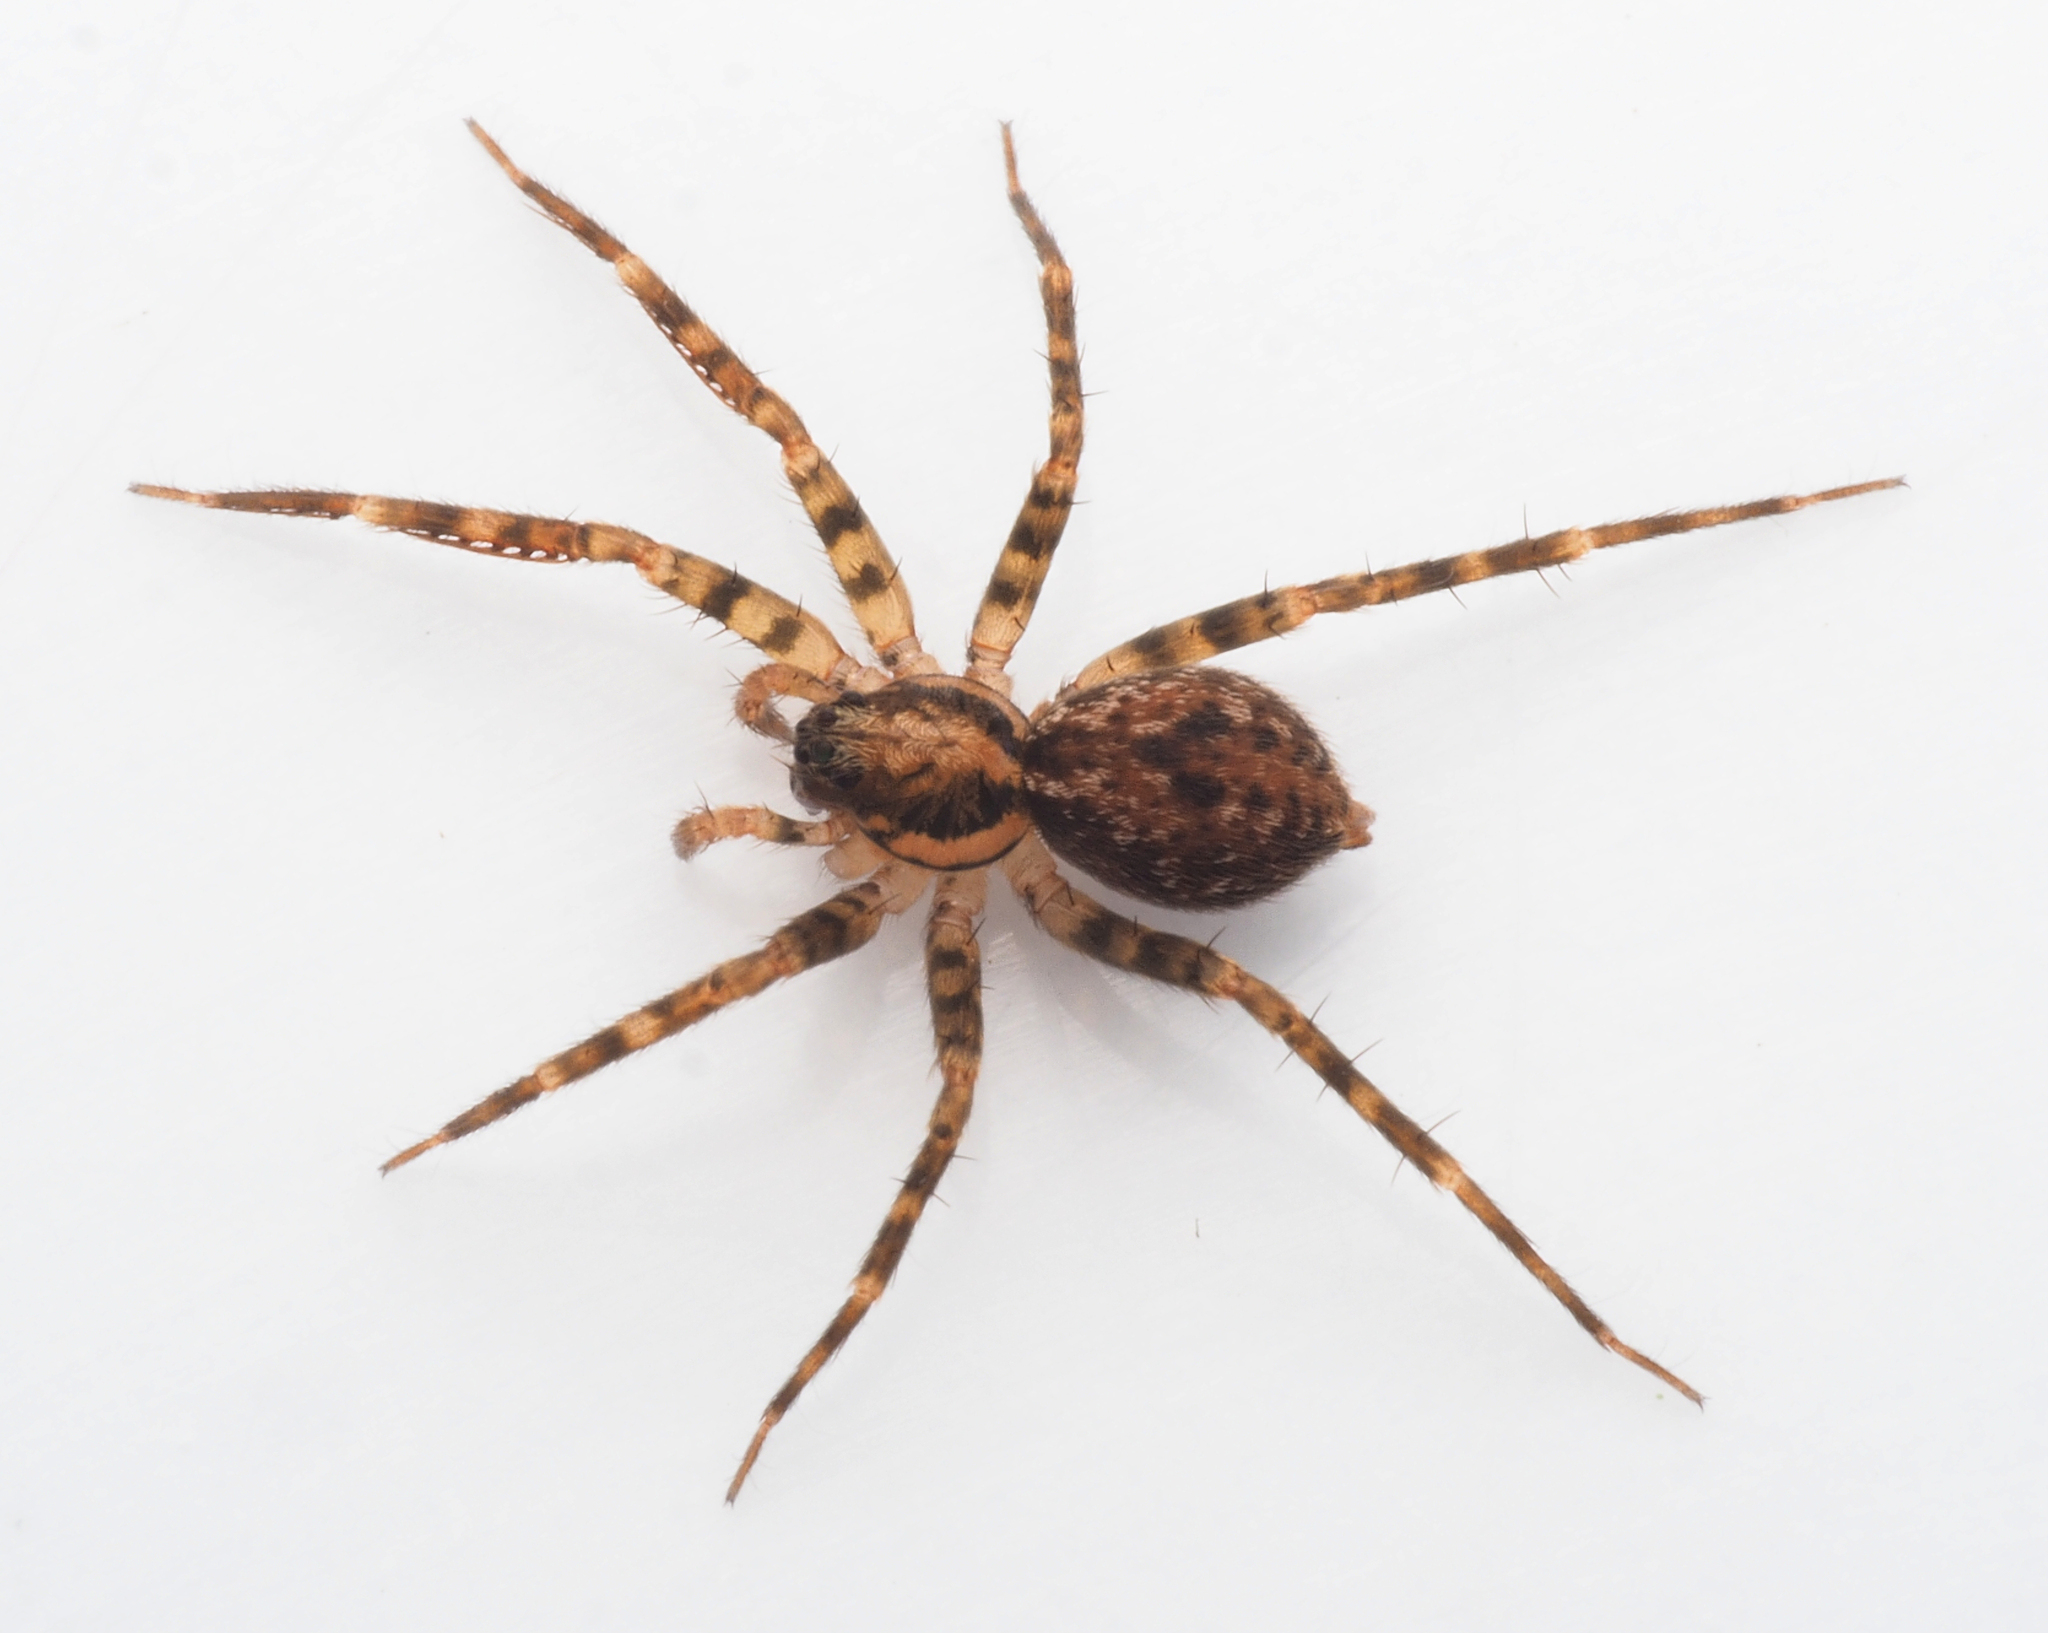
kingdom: Animalia
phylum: Arthropoda
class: Arachnida
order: Araneae
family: Toxopidae
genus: Toxopsoides
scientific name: Toxopsoides erici
